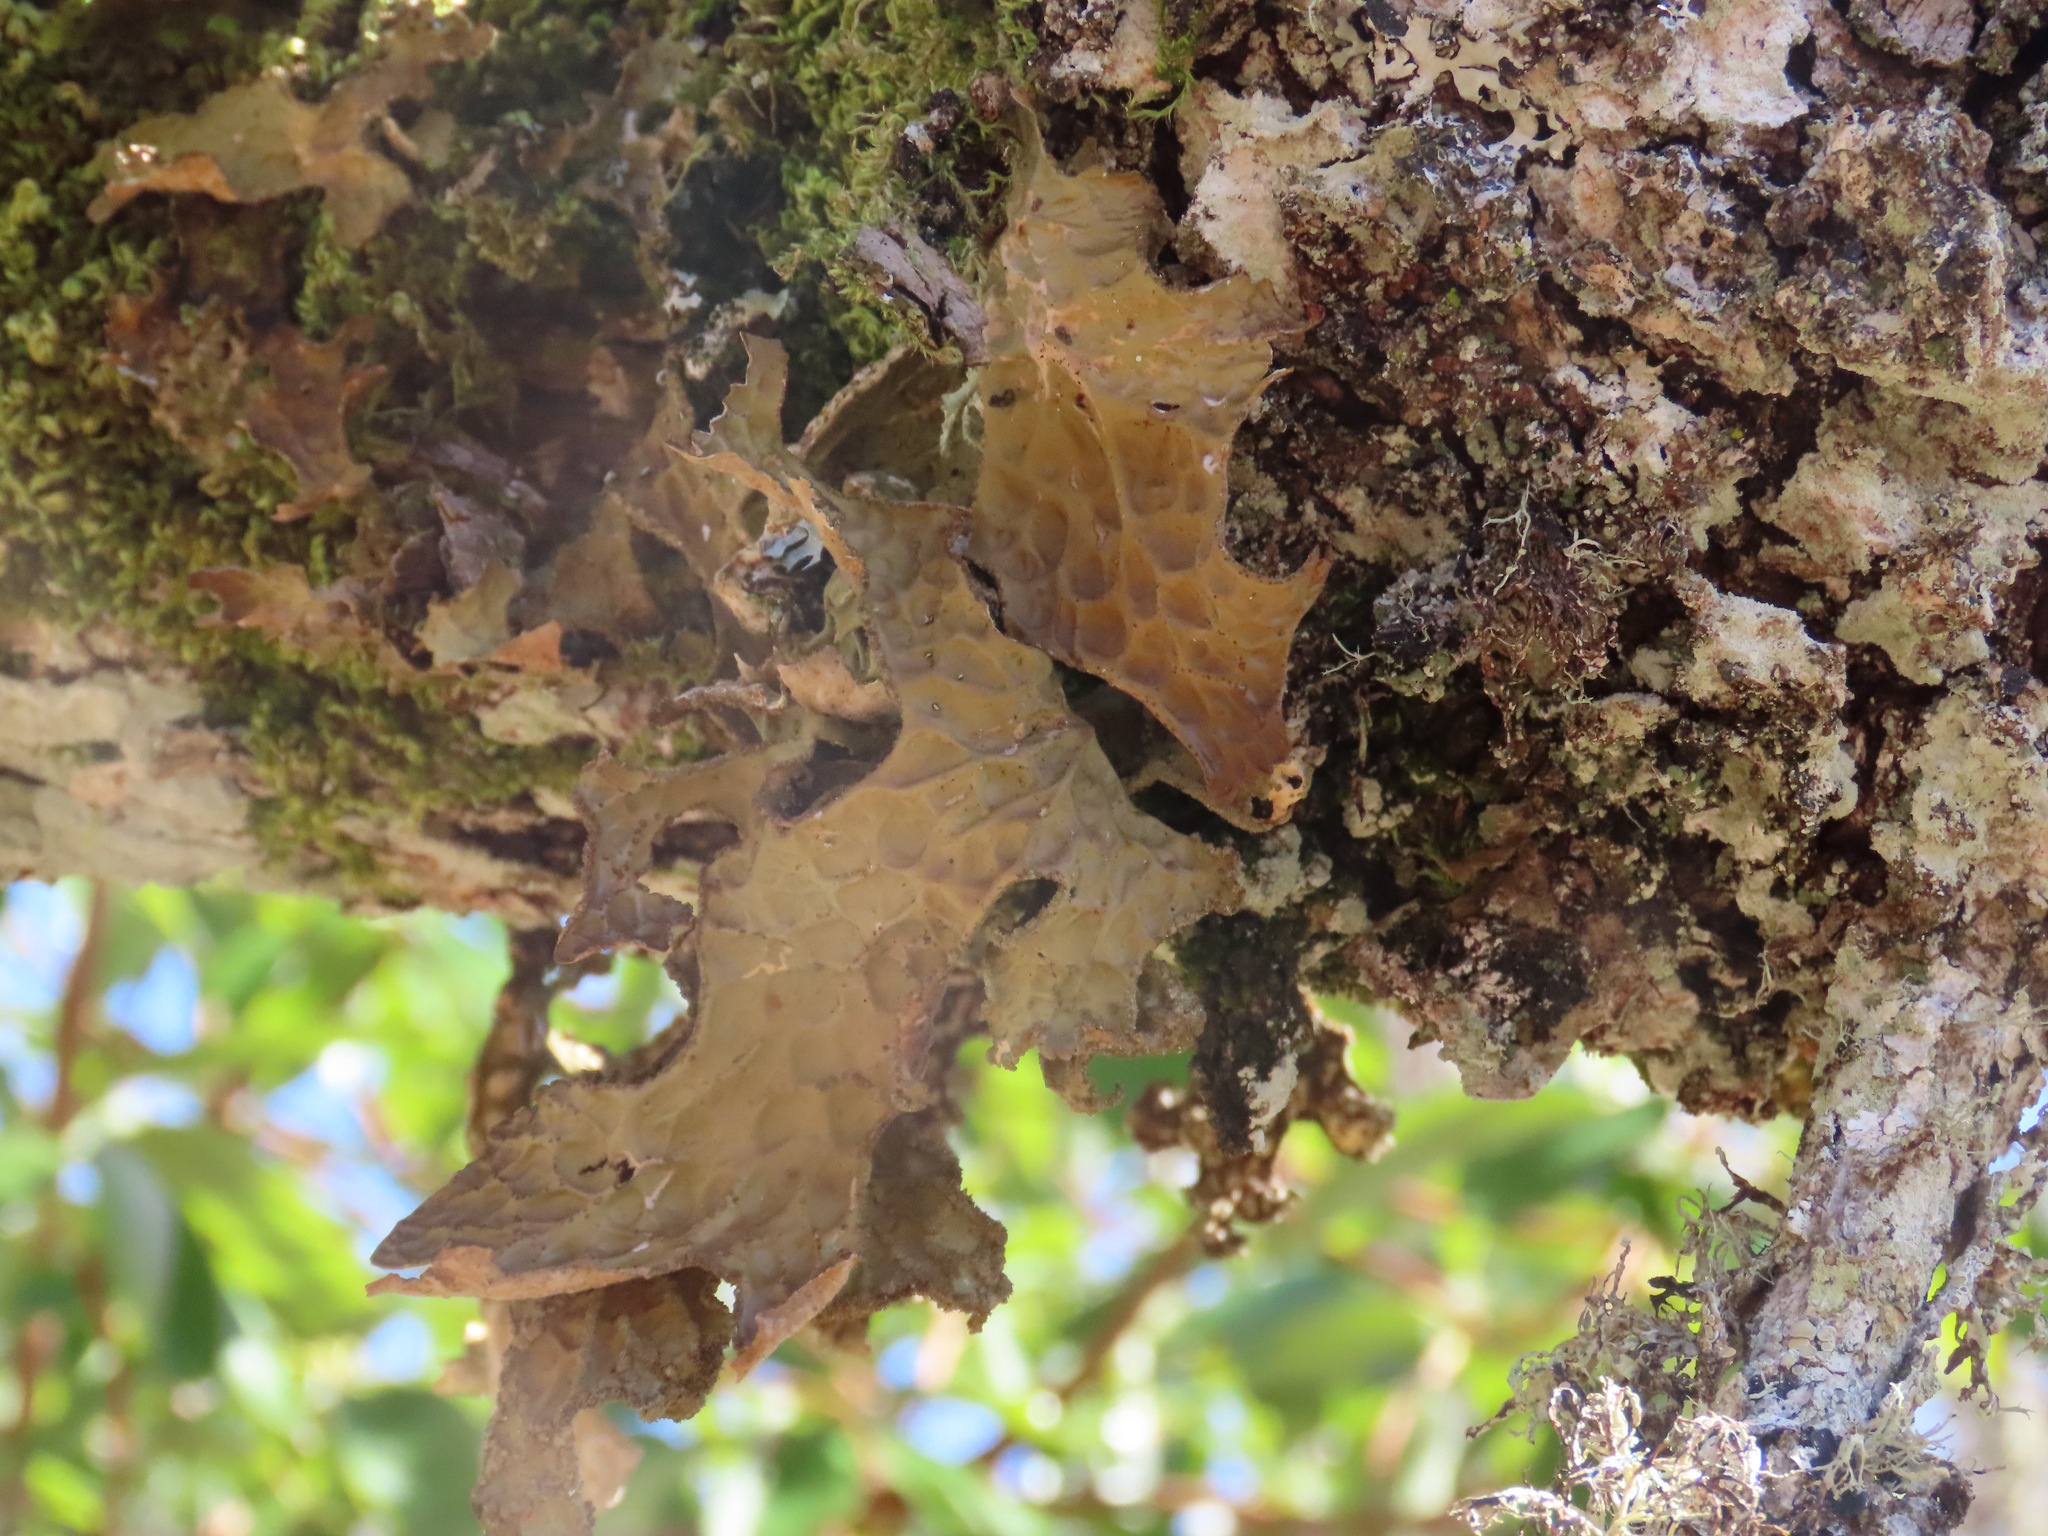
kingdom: Fungi
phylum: Ascomycota
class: Lecanoromycetes
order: Peltigerales
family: Lobariaceae
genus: Lobaria
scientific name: Lobaria pulmonaria
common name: Lungwort
